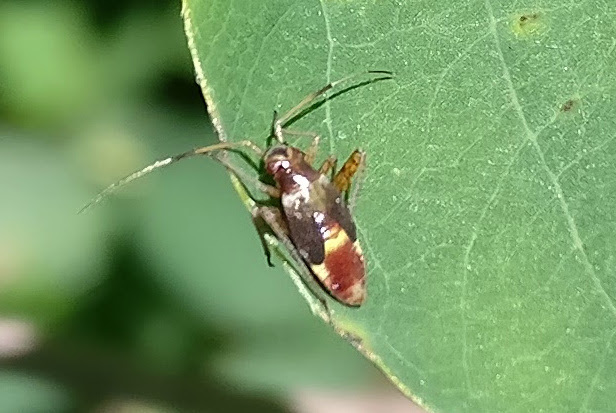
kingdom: Animalia
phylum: Arthropoda
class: Insecta
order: Hemiptera
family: Miridae
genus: Closterotomus
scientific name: Closterotomus fulvomaculatus
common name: Spotted plant bug
